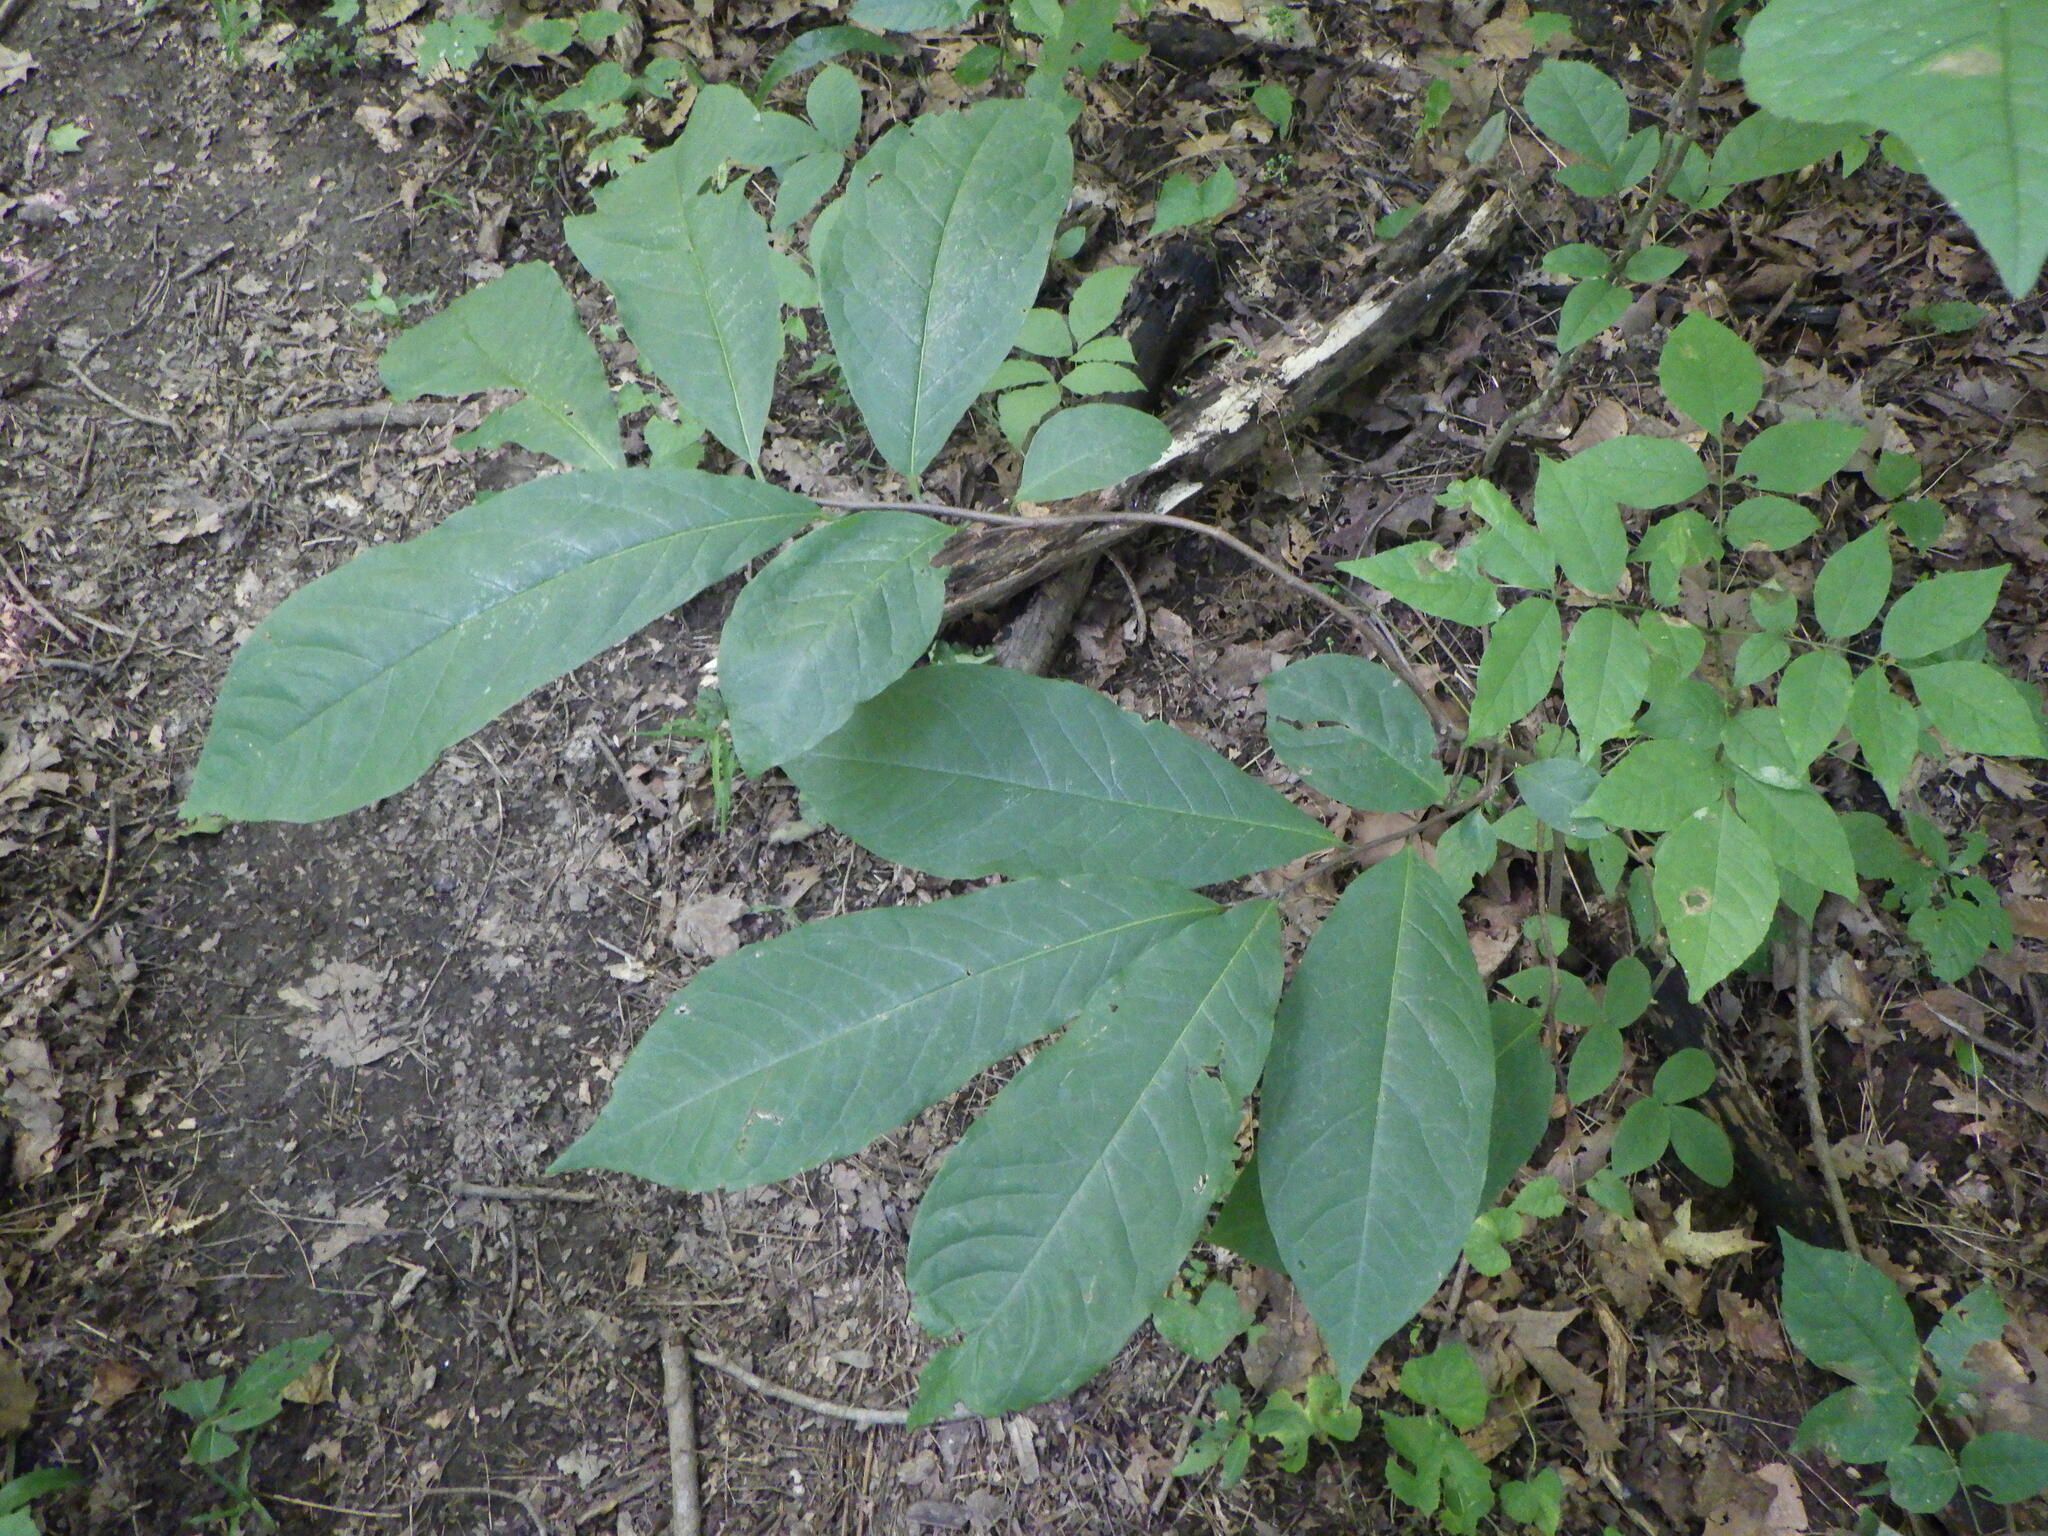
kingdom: Plantae
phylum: Tracheophyta
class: Magnoliopsida
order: Magnoliales
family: Annonaceae
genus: Asimina
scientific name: Asimina triloba
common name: Dog-banana
